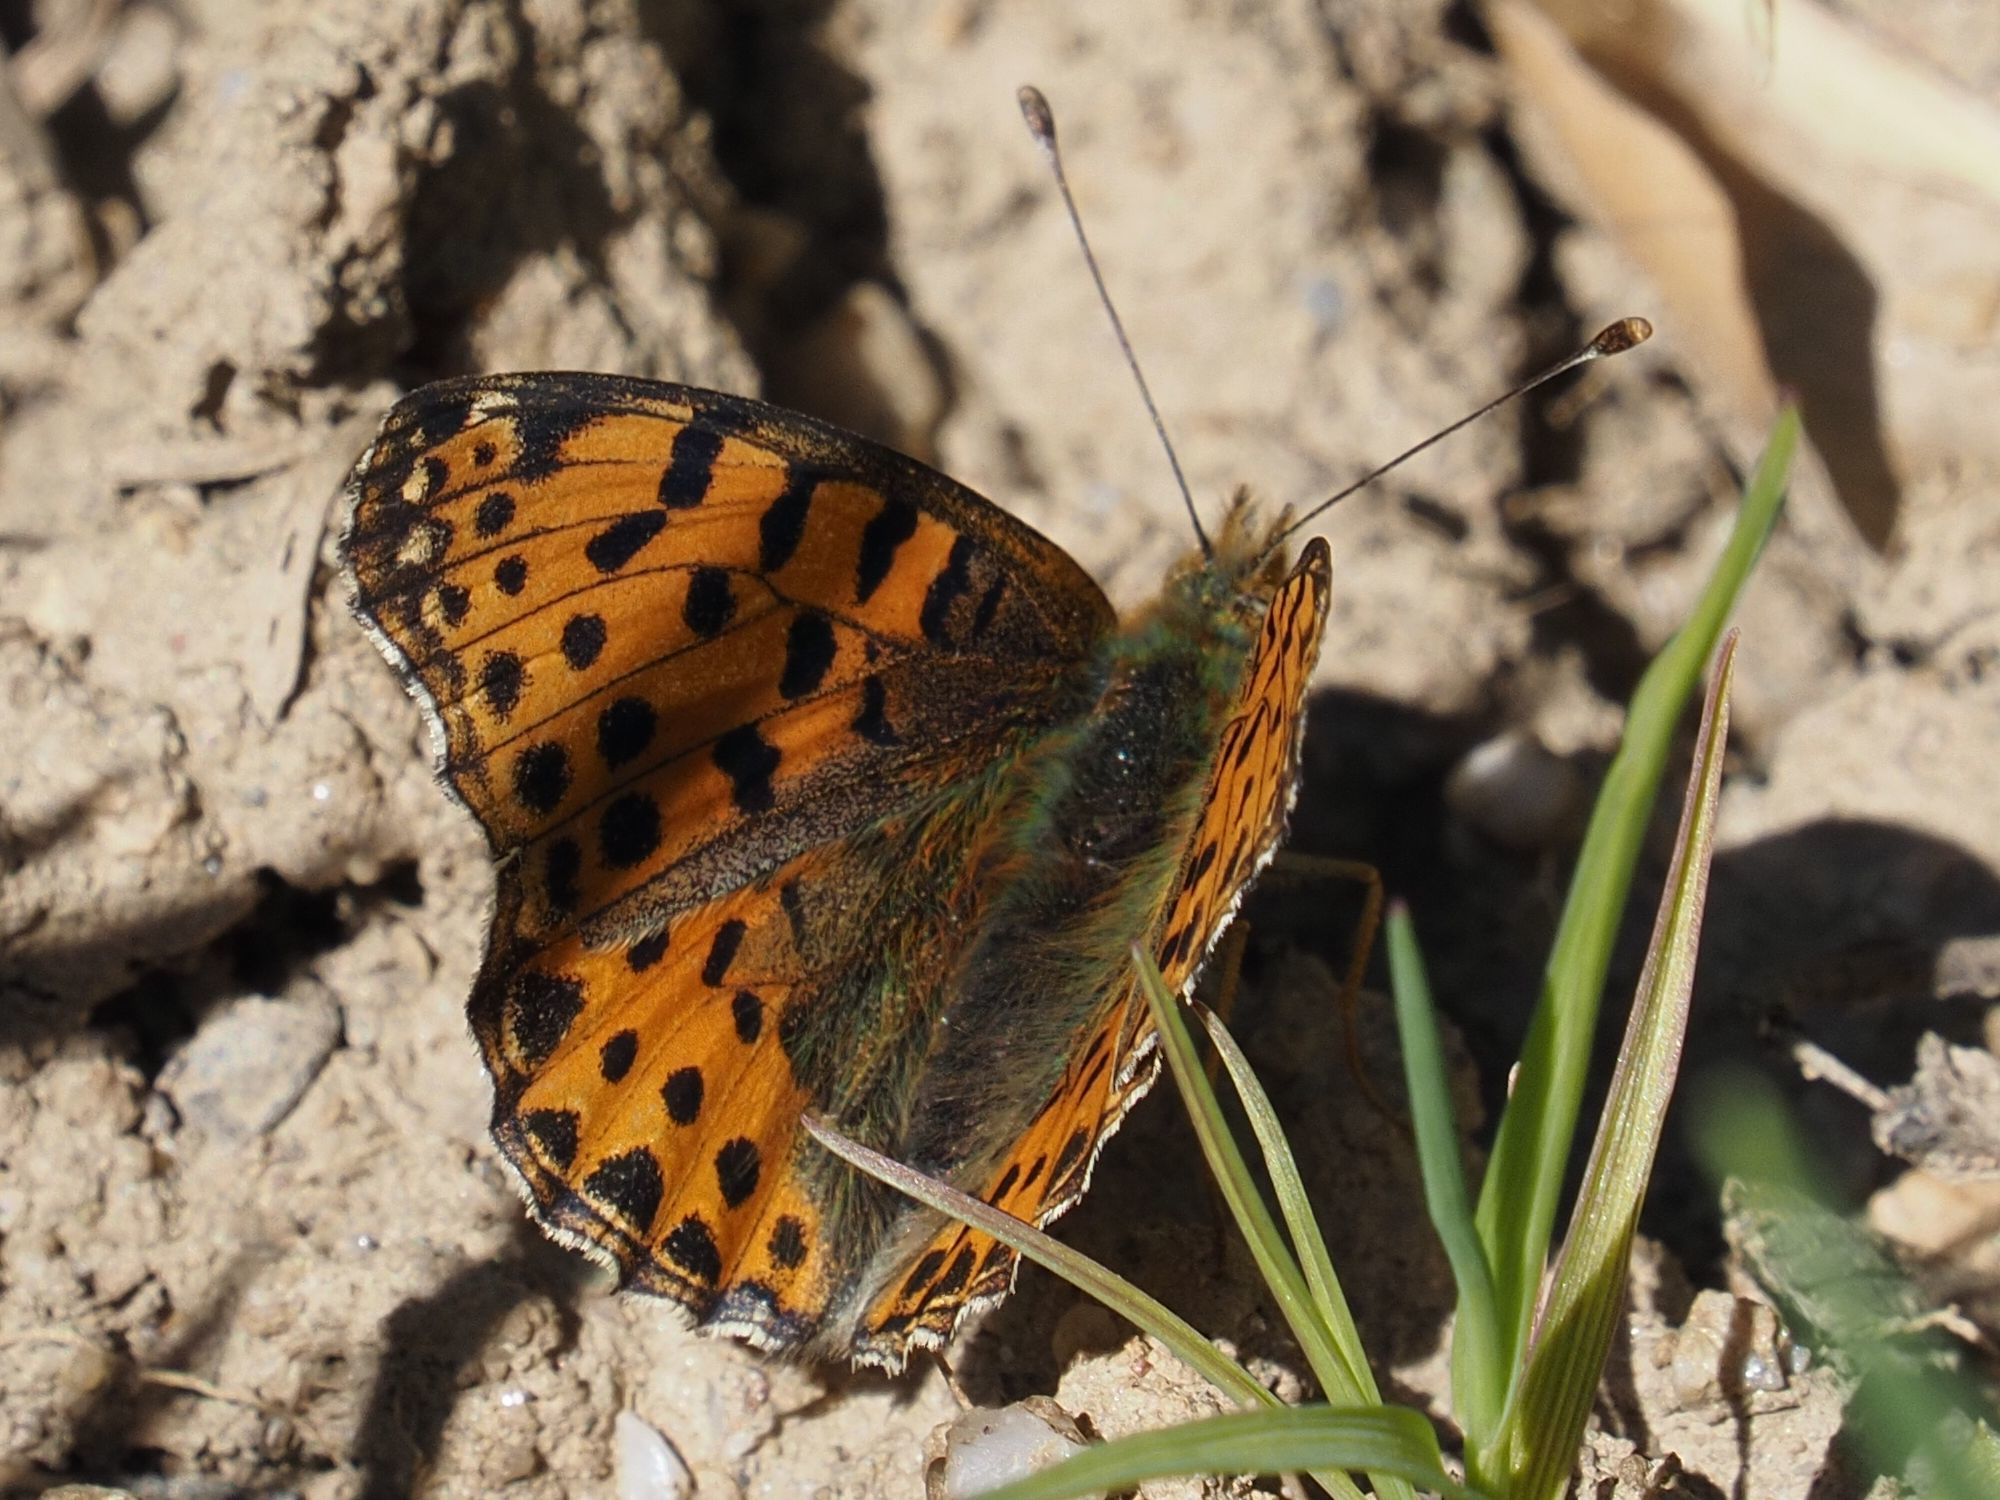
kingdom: Animalia
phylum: Arthropoda
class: Insecta
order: Lepidoptera
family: Nymphalidae
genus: Issoria
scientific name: Issoria lathonia
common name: Queen of spain fritillary
